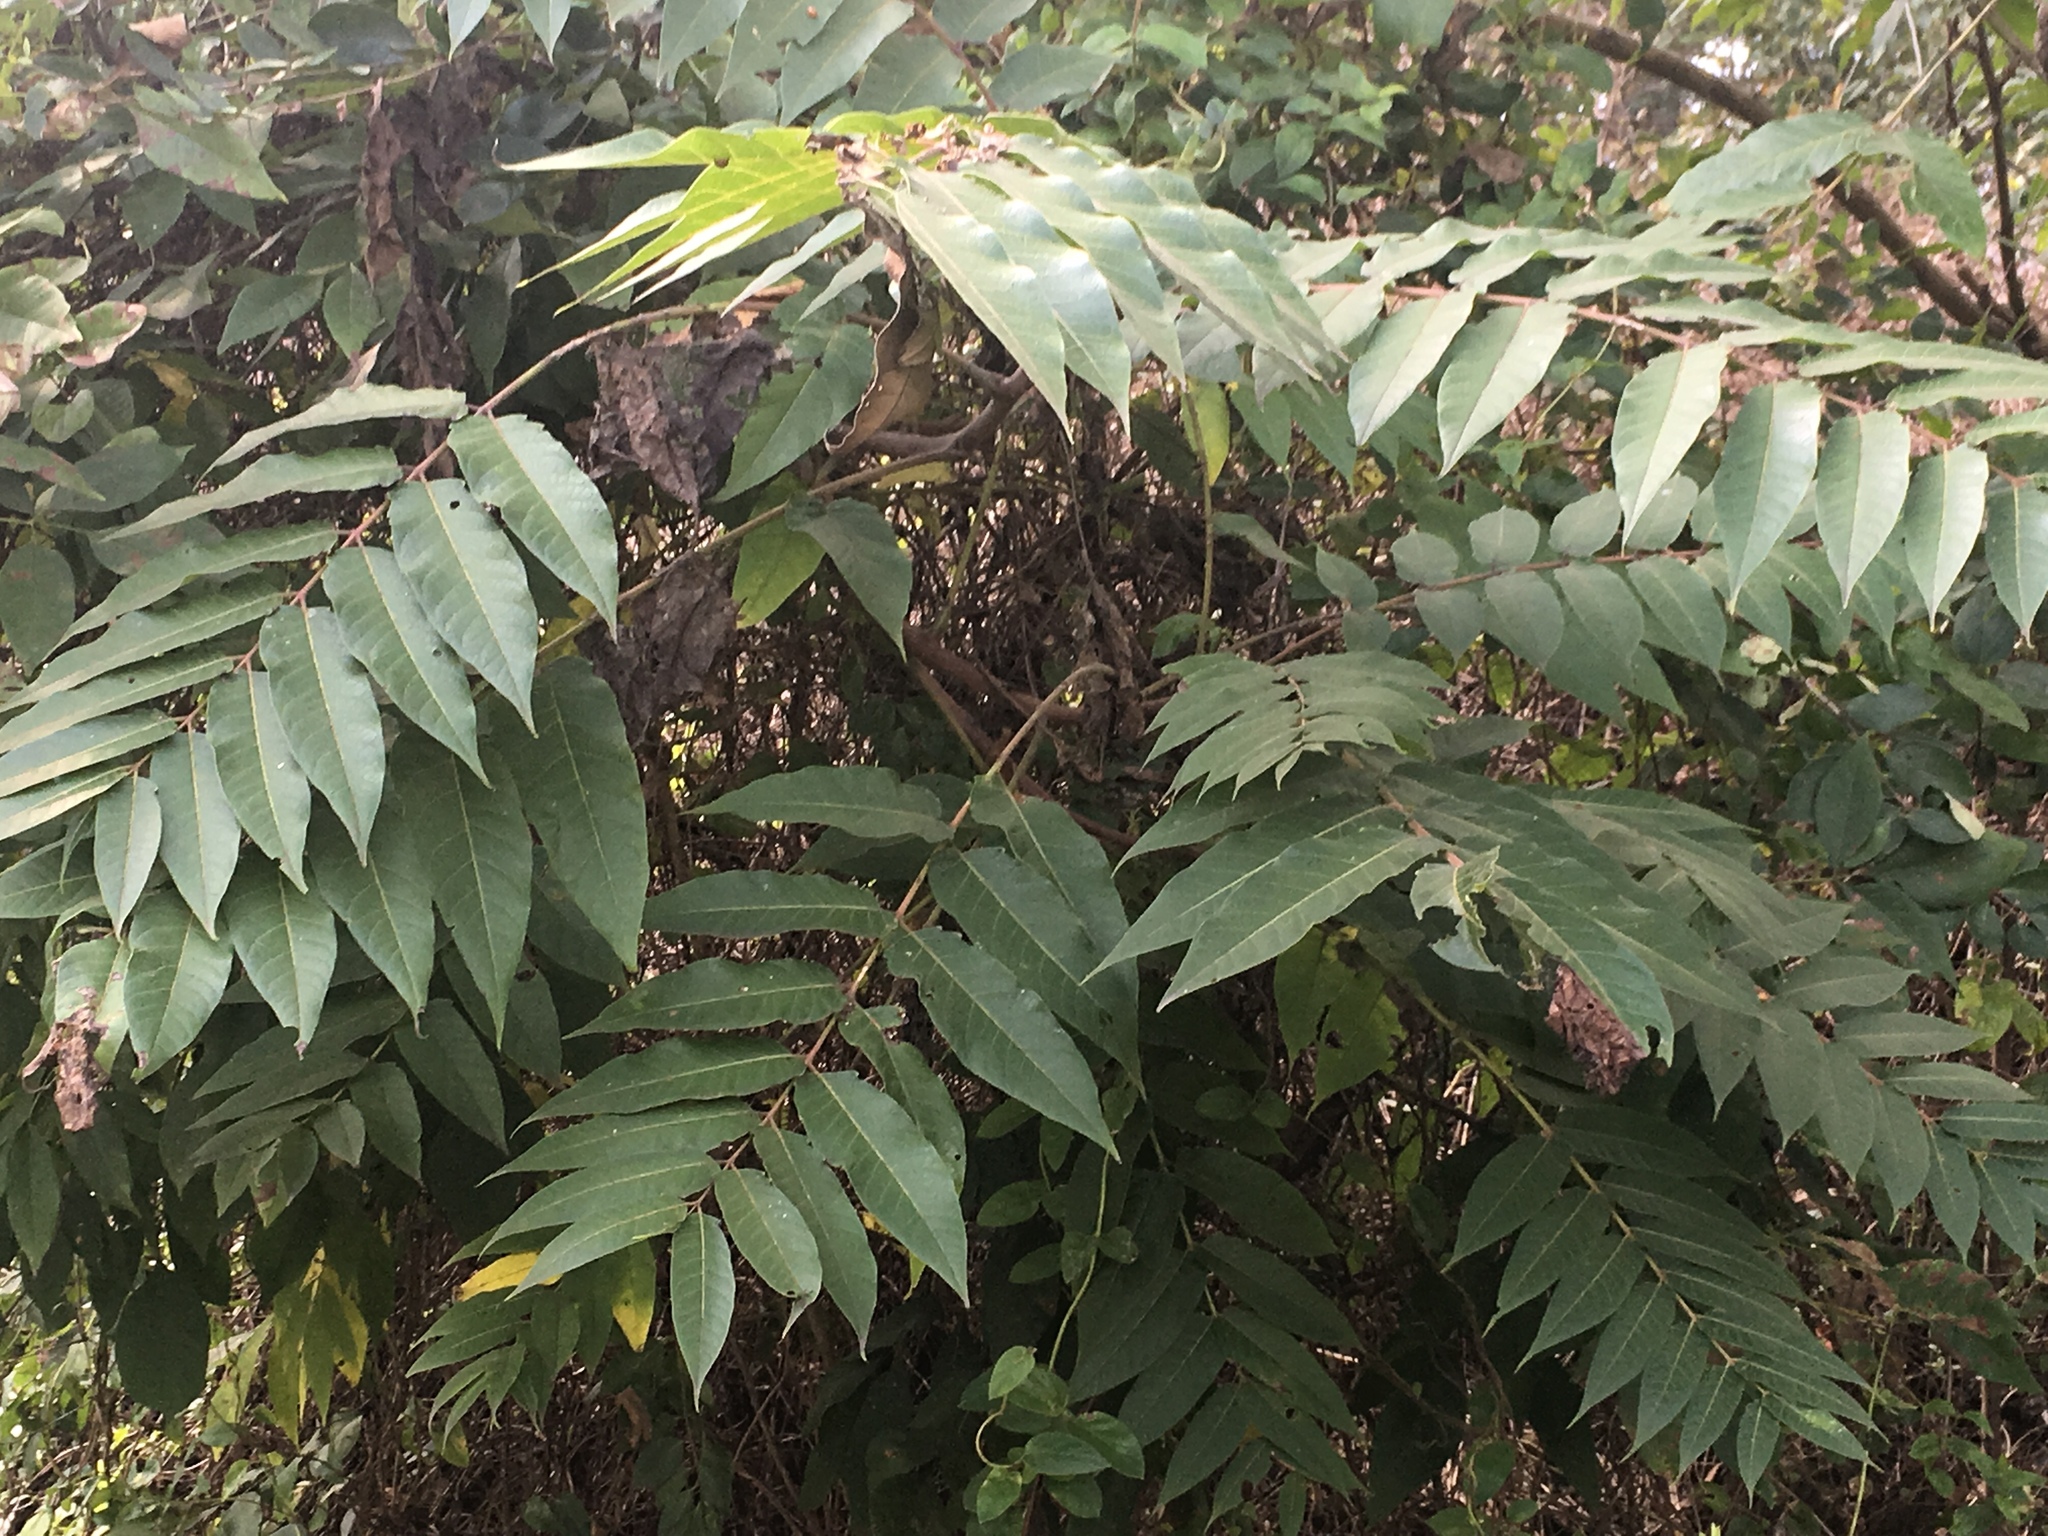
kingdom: Plantae
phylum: Tracheophyta
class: Magnoliopsida
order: Sapindales
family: Simaroubaceae
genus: Ailanthus
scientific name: Ailanthus altissima
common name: Tree-of-heaven
